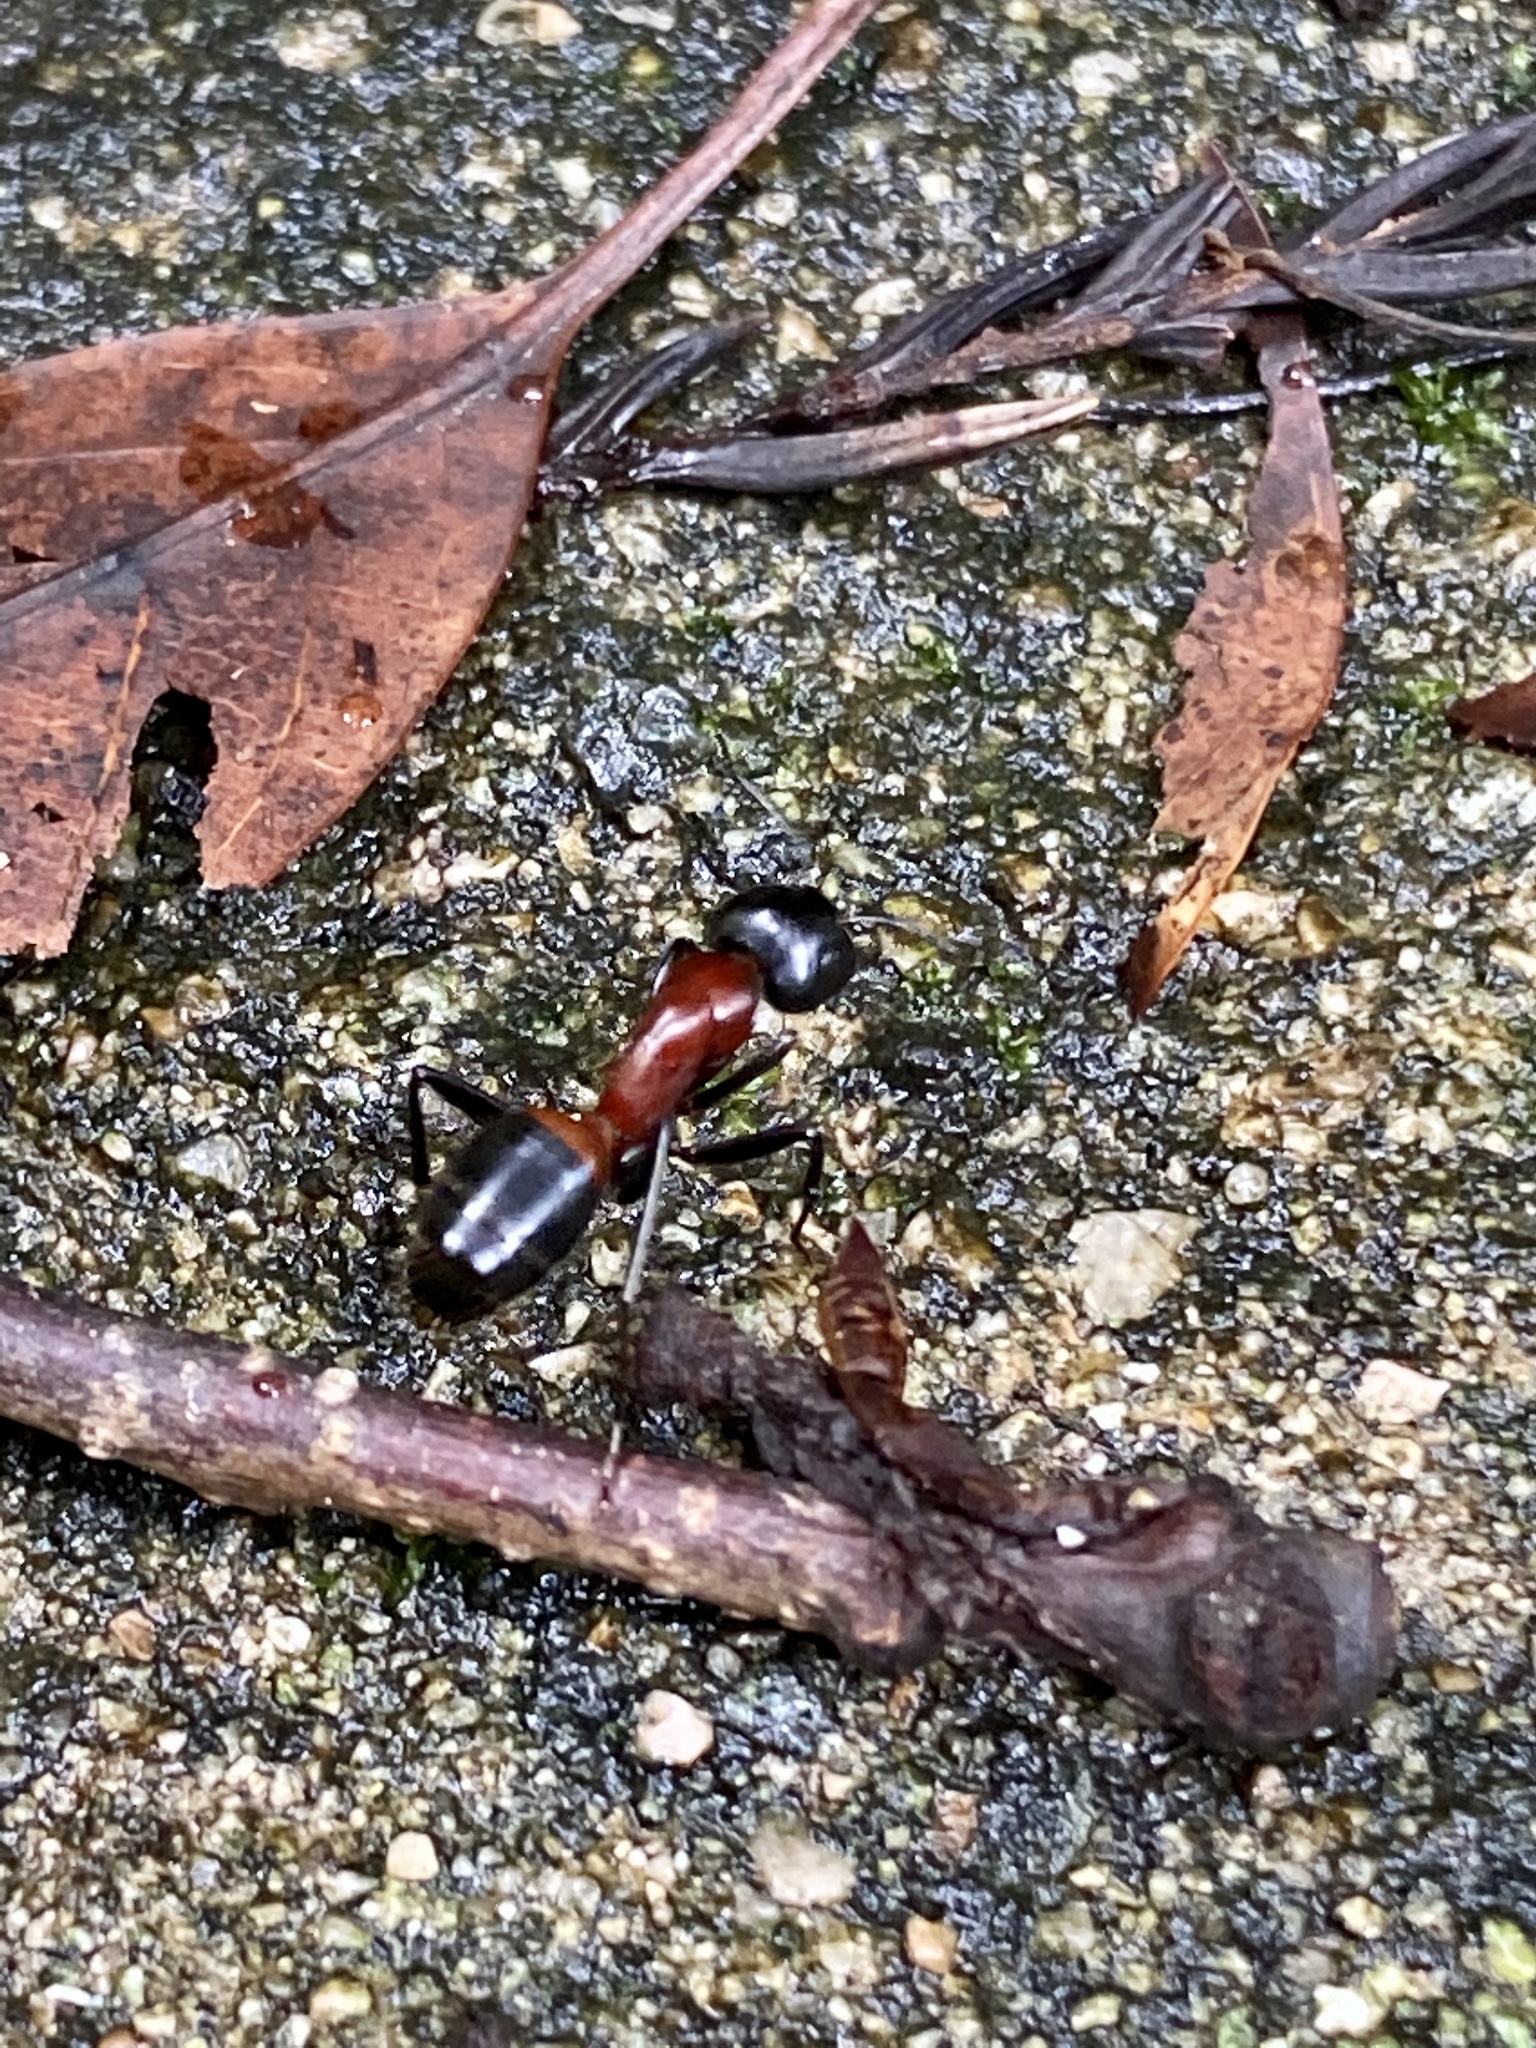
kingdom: Animalia
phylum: Arthropoda
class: Insecta
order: Hymenoptera
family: Formicidae
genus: Camponotus
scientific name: Camponotus obscuripes
